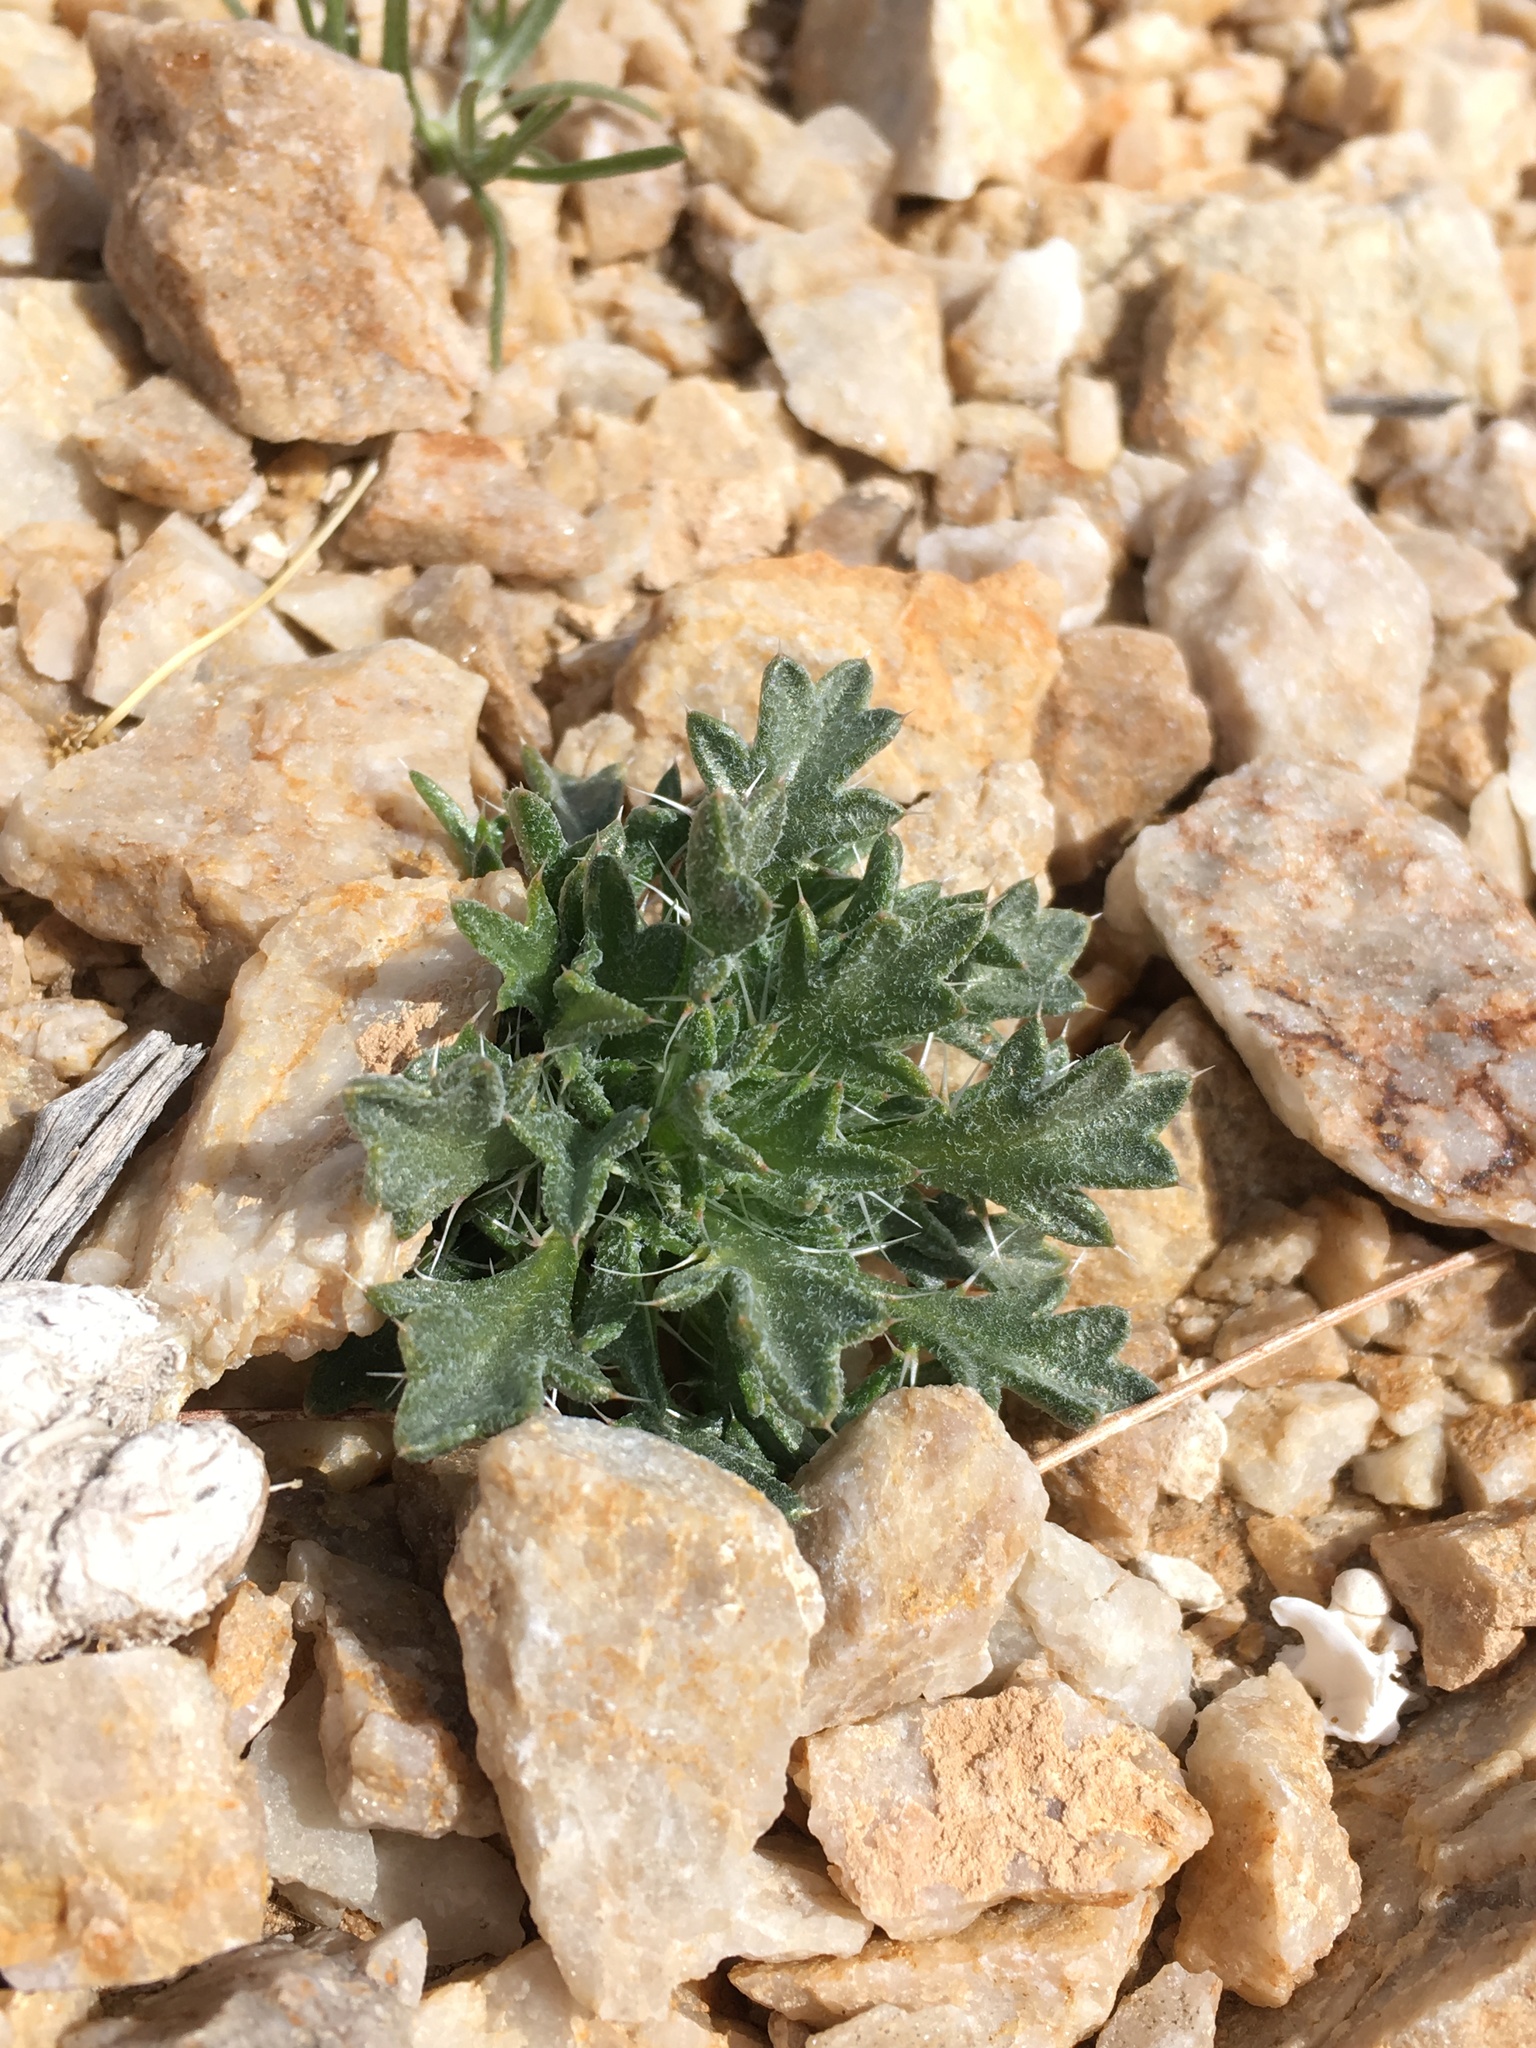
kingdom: Plantae
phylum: Tracheophyta
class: Magnoliopsida
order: Ericales
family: Polemoniaceae
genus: Langloisia
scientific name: Langloisia setosissima
